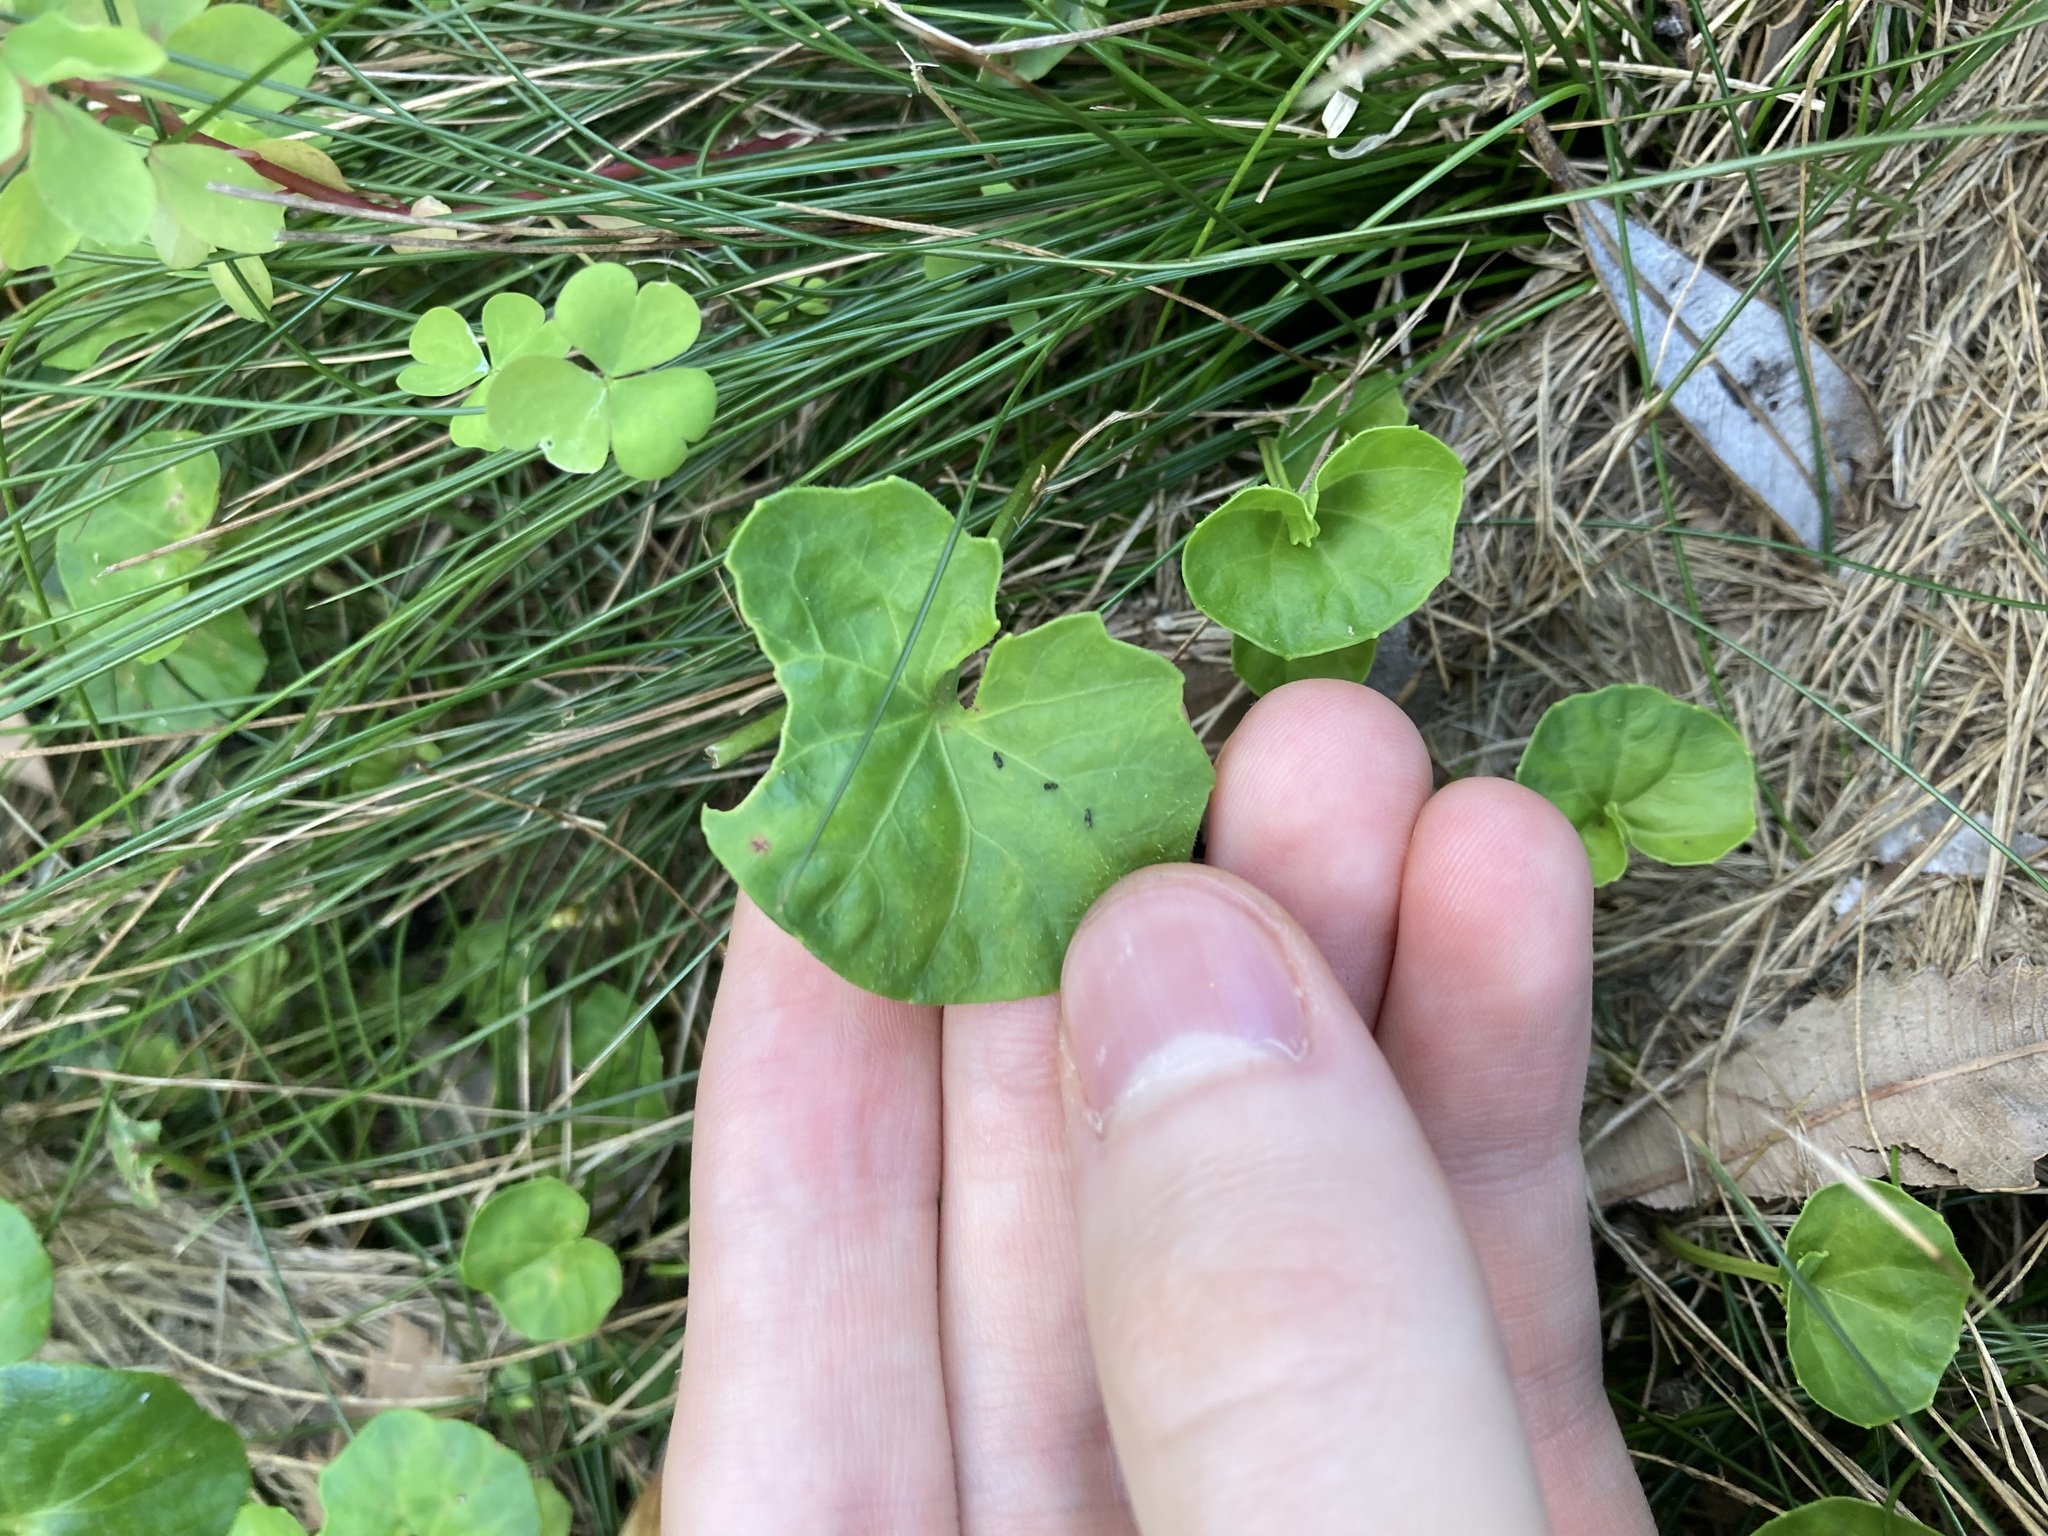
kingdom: Plantae
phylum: Tracheophyta
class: Magnoliopsida
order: Malpighiales
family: Violaceae
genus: Viola
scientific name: Viola banksii
